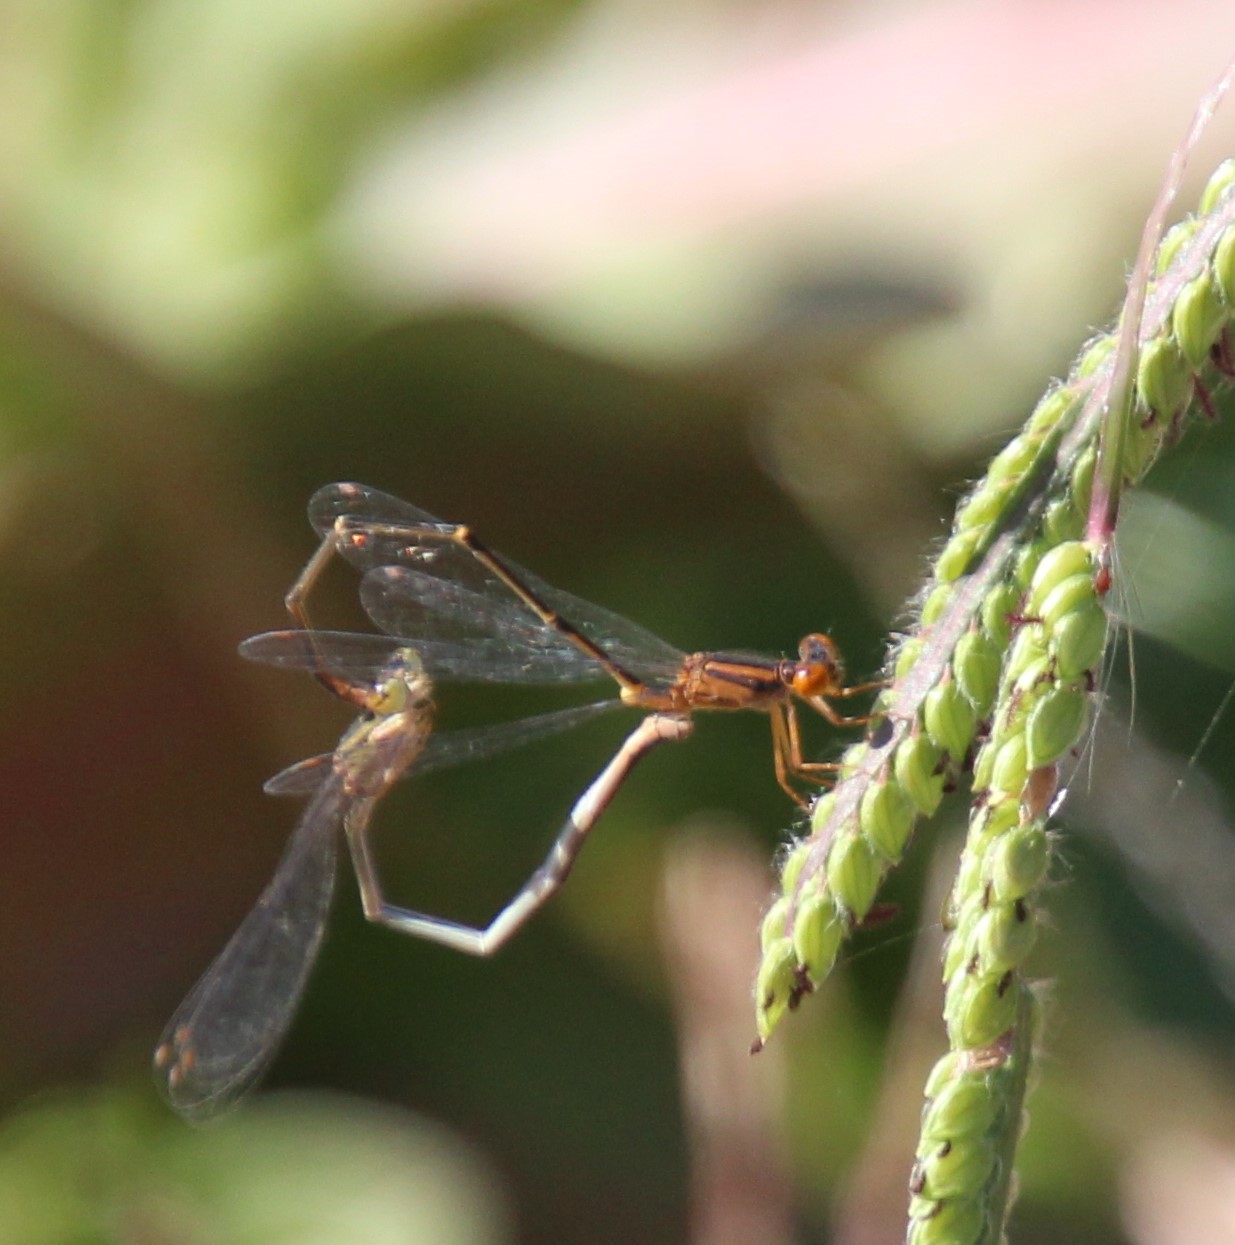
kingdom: Animalia
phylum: Arthropoda
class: Insecta
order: Odonata
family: Coenagrionidae
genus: Enallagma
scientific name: Enallagma signatum
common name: Orange bluet
